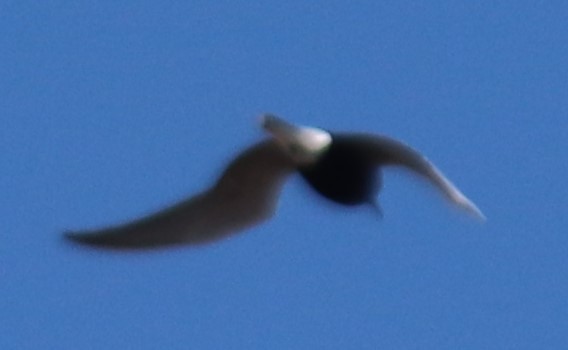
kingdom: Animalia
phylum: Chordata
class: Aves
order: Charadriiformes
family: Laridae
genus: Chlidonias
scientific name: Chlidonias niger
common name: Black tern
